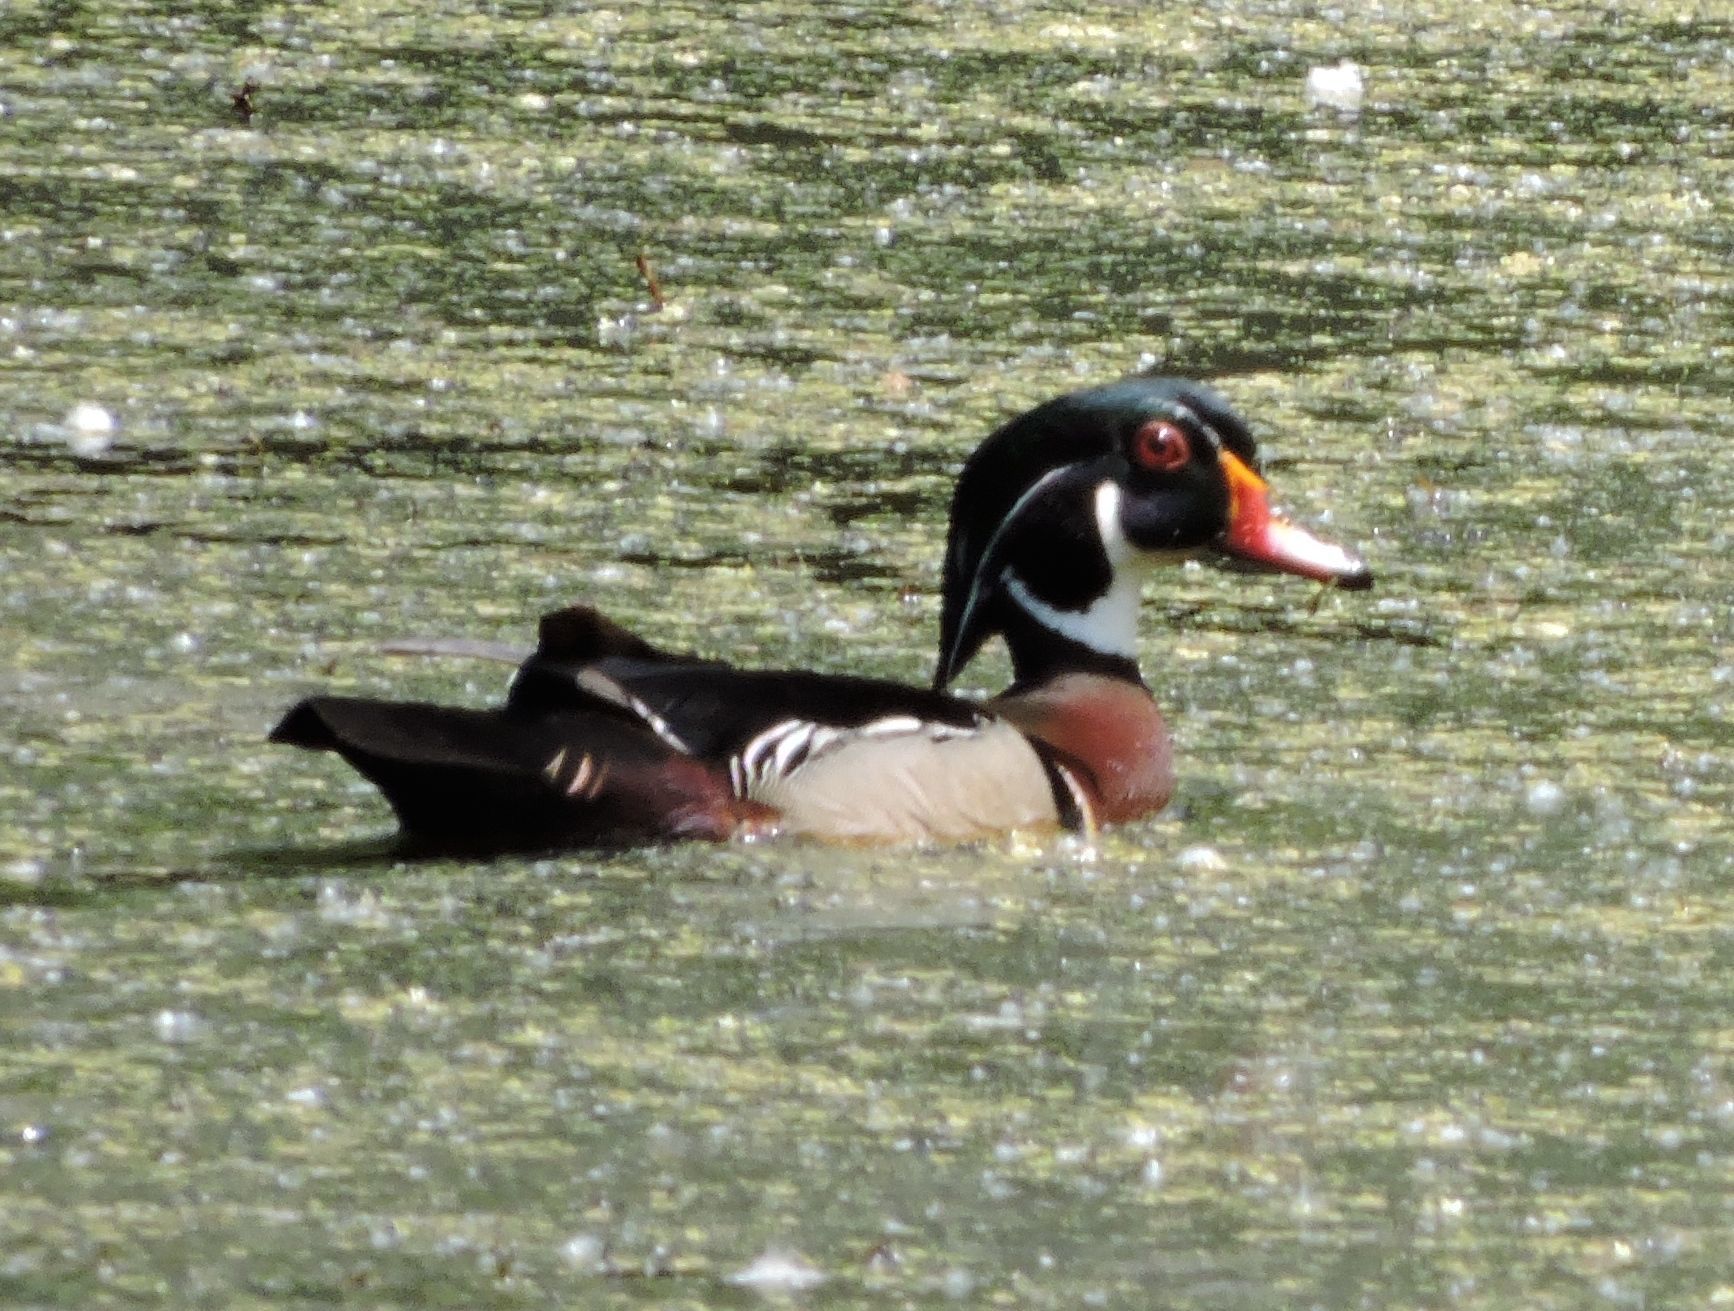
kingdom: Animalia
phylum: Chordata
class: Aves
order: Anseriformes
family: Anatidae
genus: Aix
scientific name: Aix sponsa
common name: Wood duck
